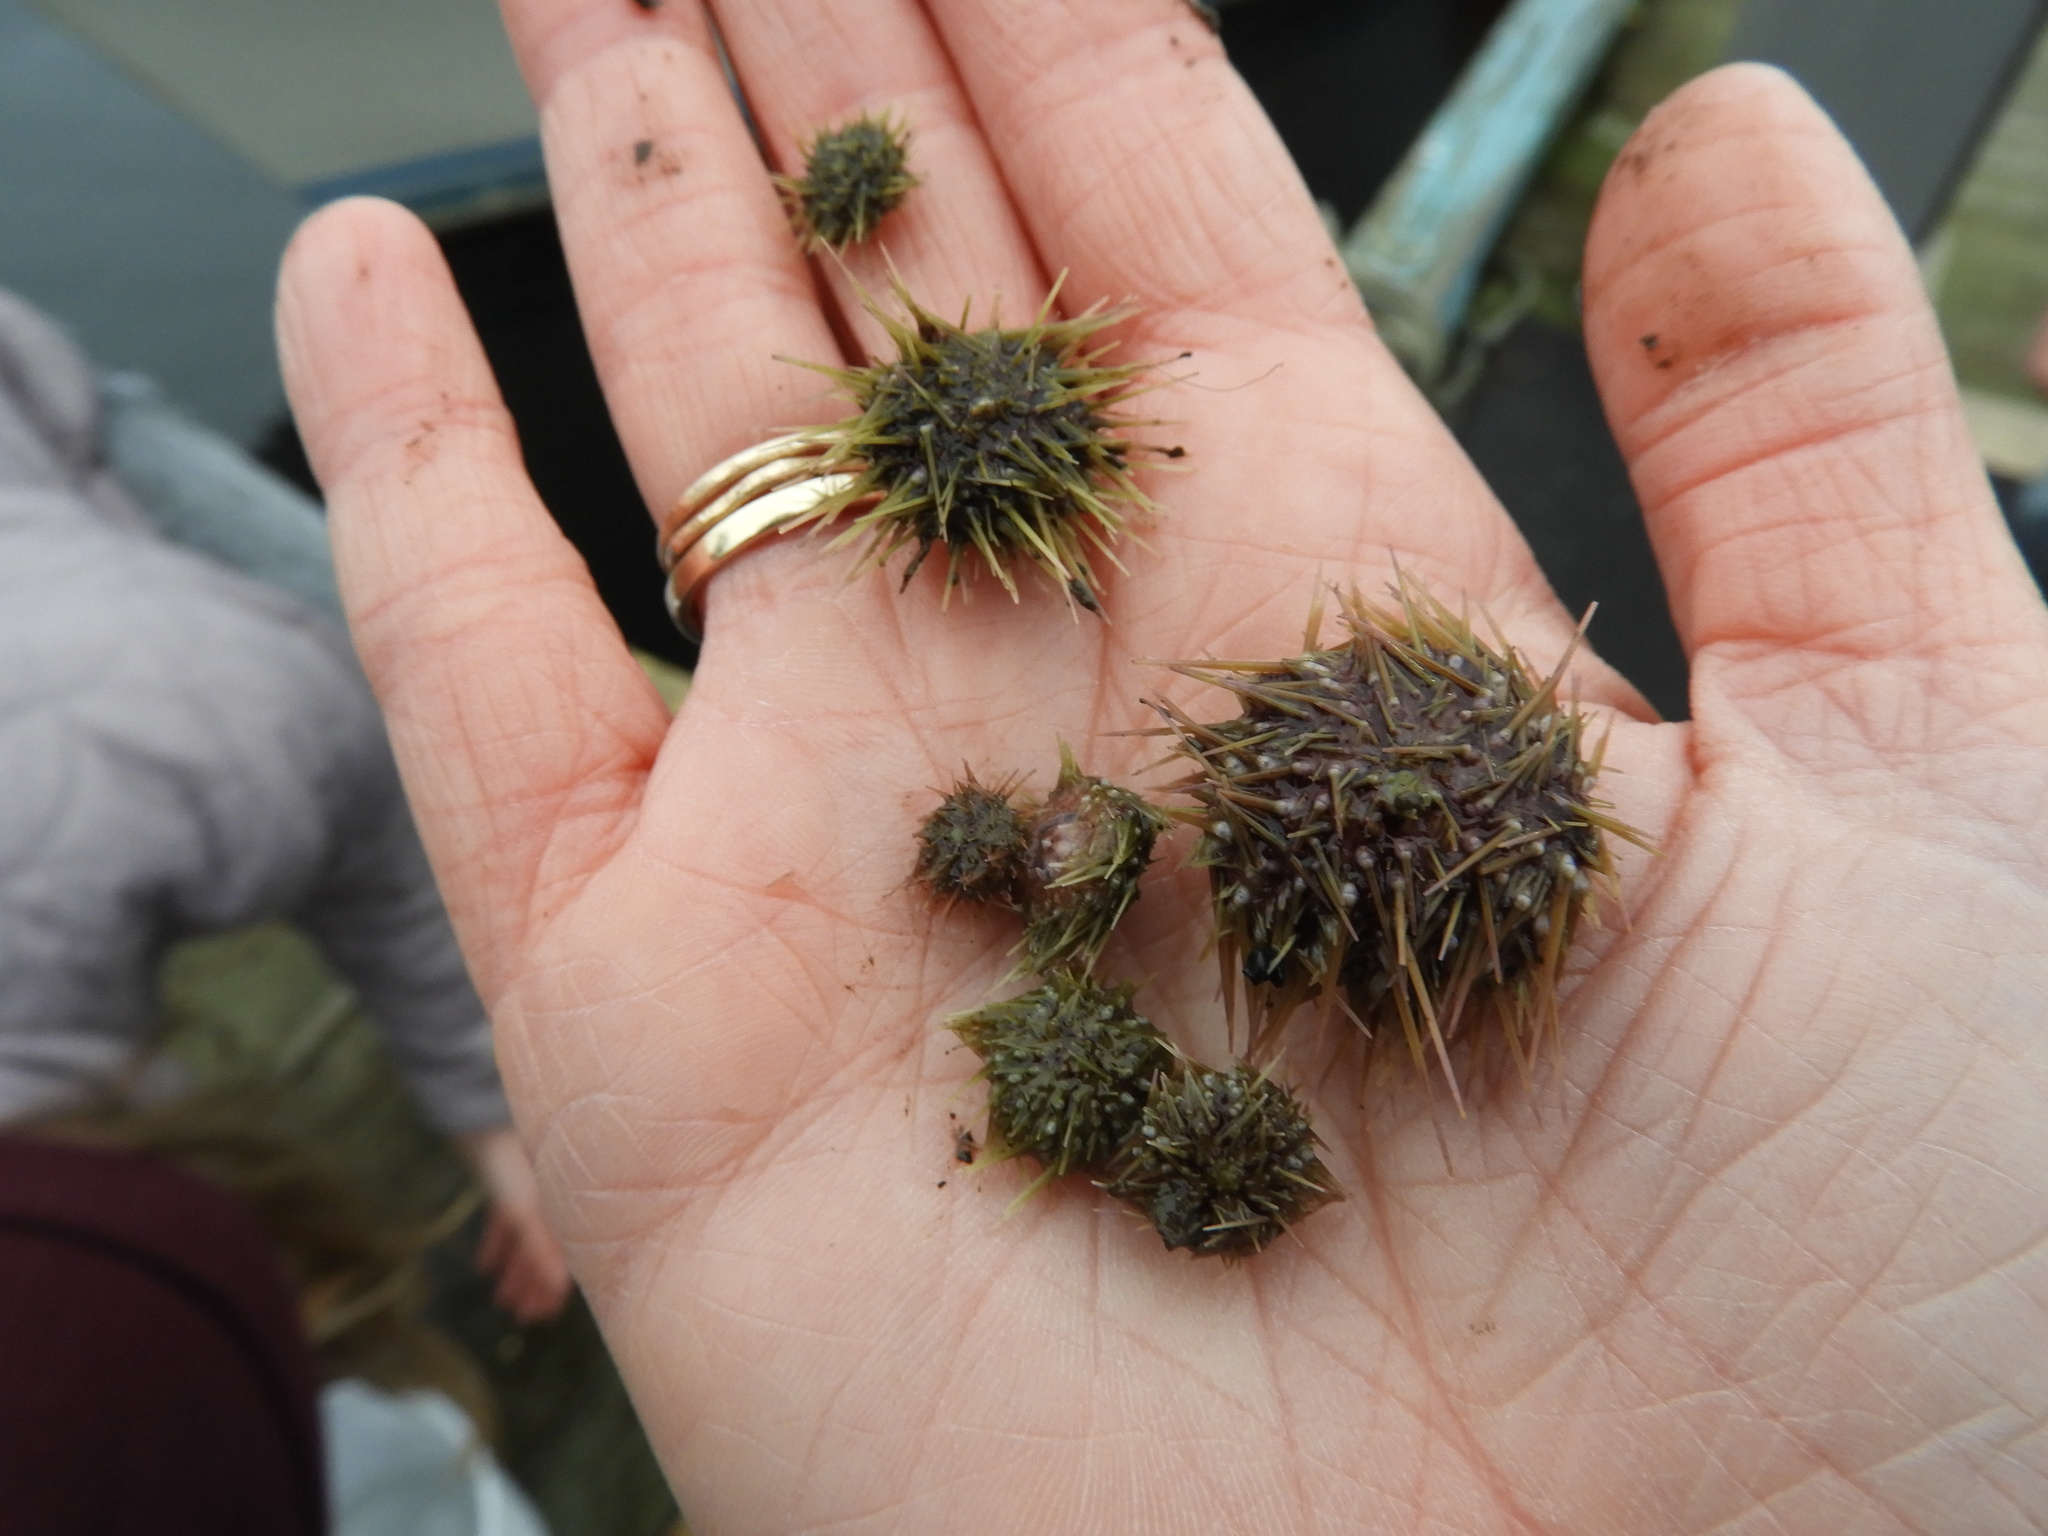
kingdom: Animalia
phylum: Echinodermata
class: Echinoidea
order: Camarodonta
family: Strongylocentrotidae
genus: Strongylocentrotus
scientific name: Strongylocentrotus droebachiensis
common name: Northern sea urchin
